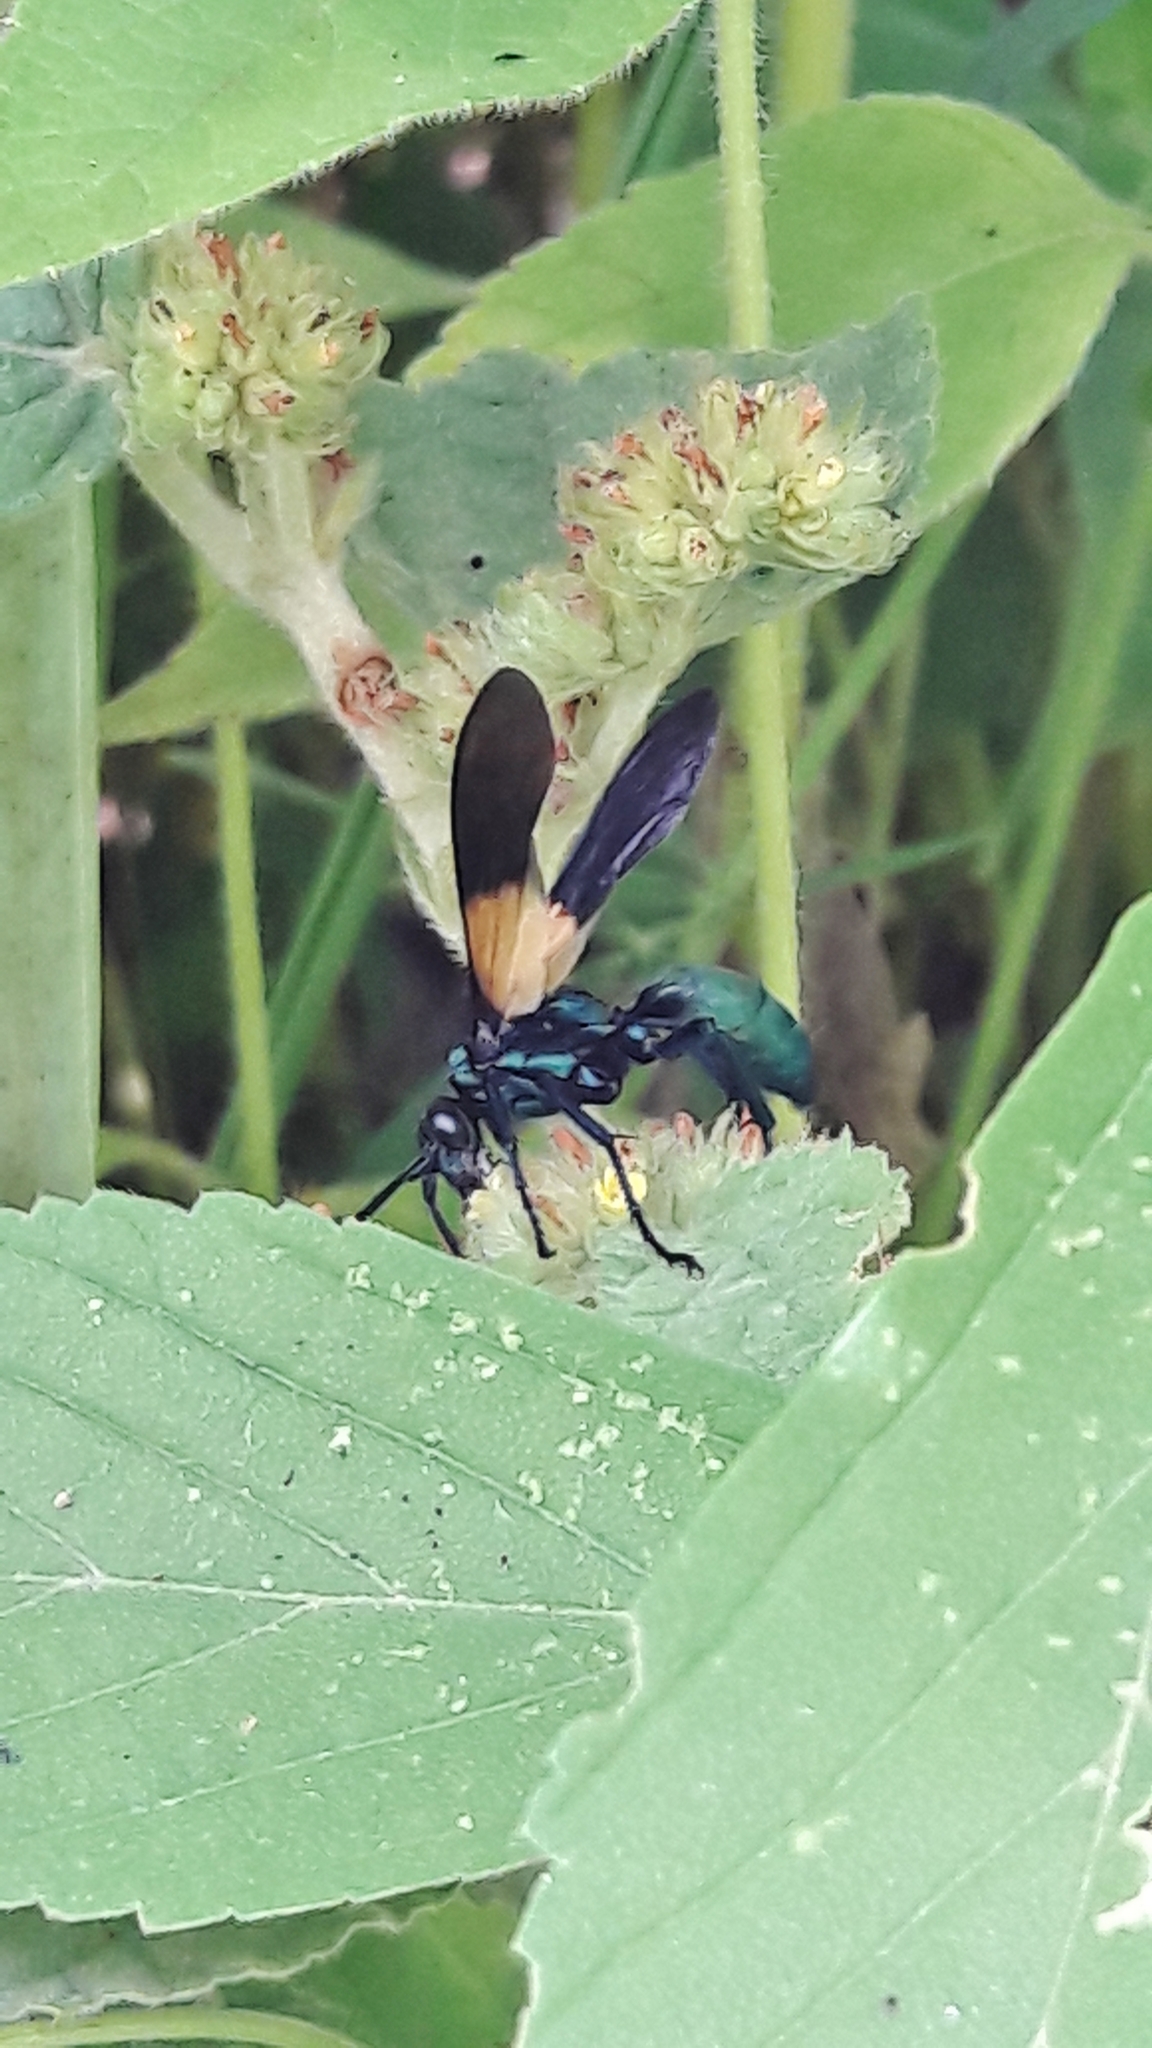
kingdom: Animalia
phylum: Arthropoda
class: Insecta
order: Hymenoptera
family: Pompilidae
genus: Pepsis
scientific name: Pepsis completa
